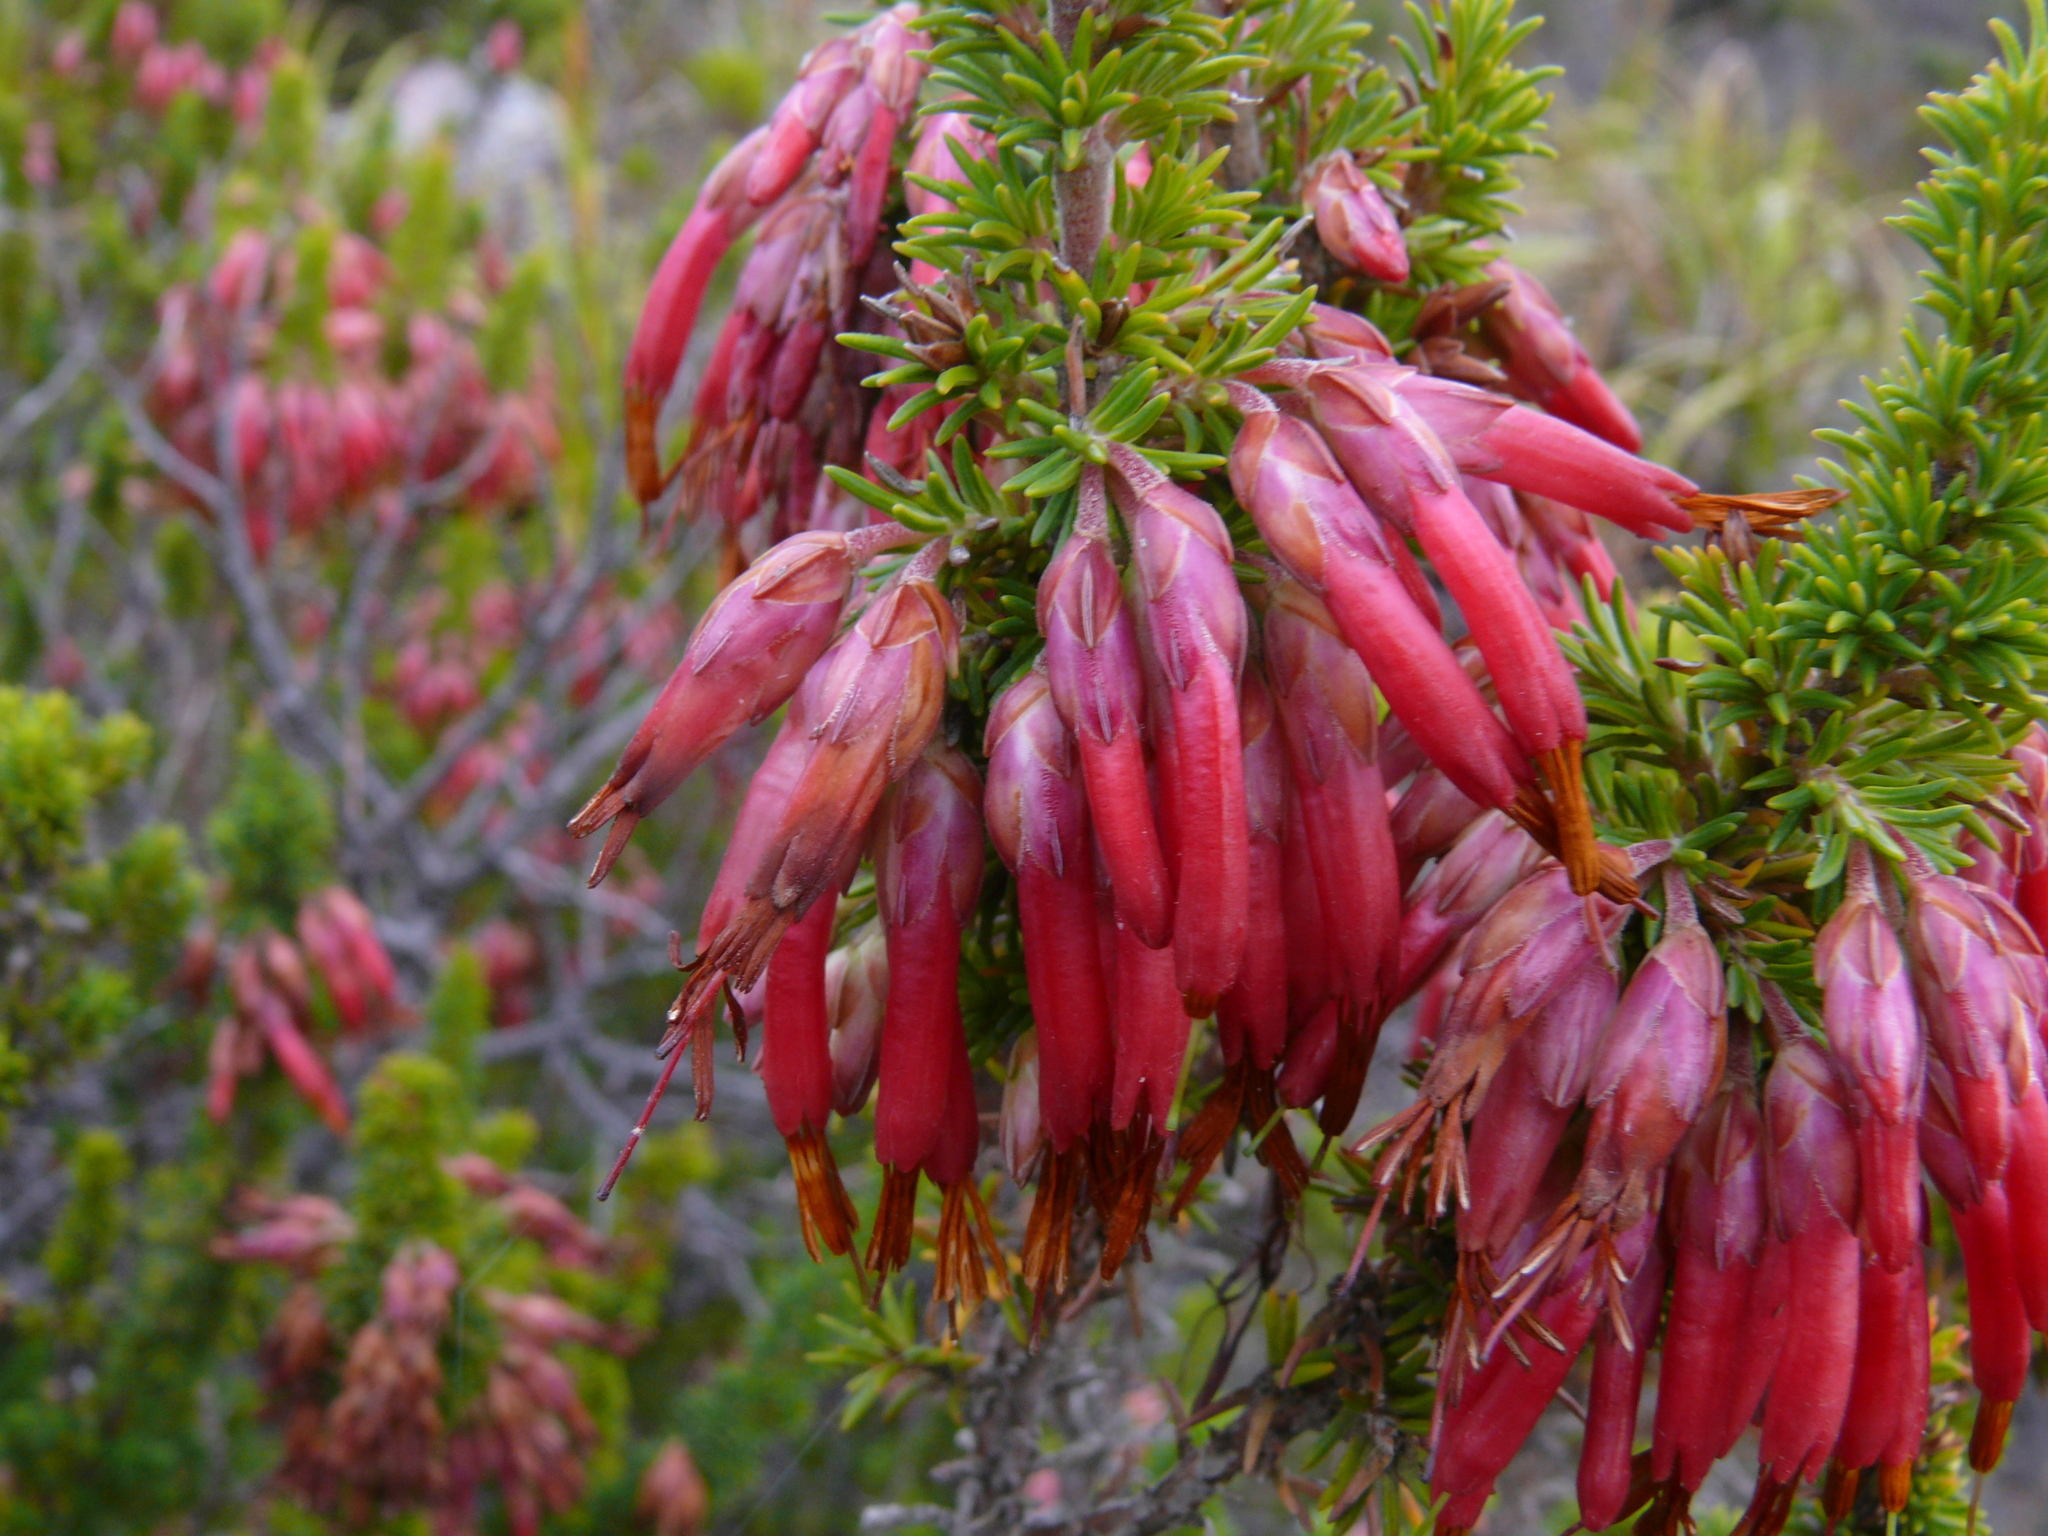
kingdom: Plantae
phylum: Tracheophyta
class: Magnoliopsida
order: Ericales
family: Ericaceae
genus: Erica
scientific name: Erica coccinea
